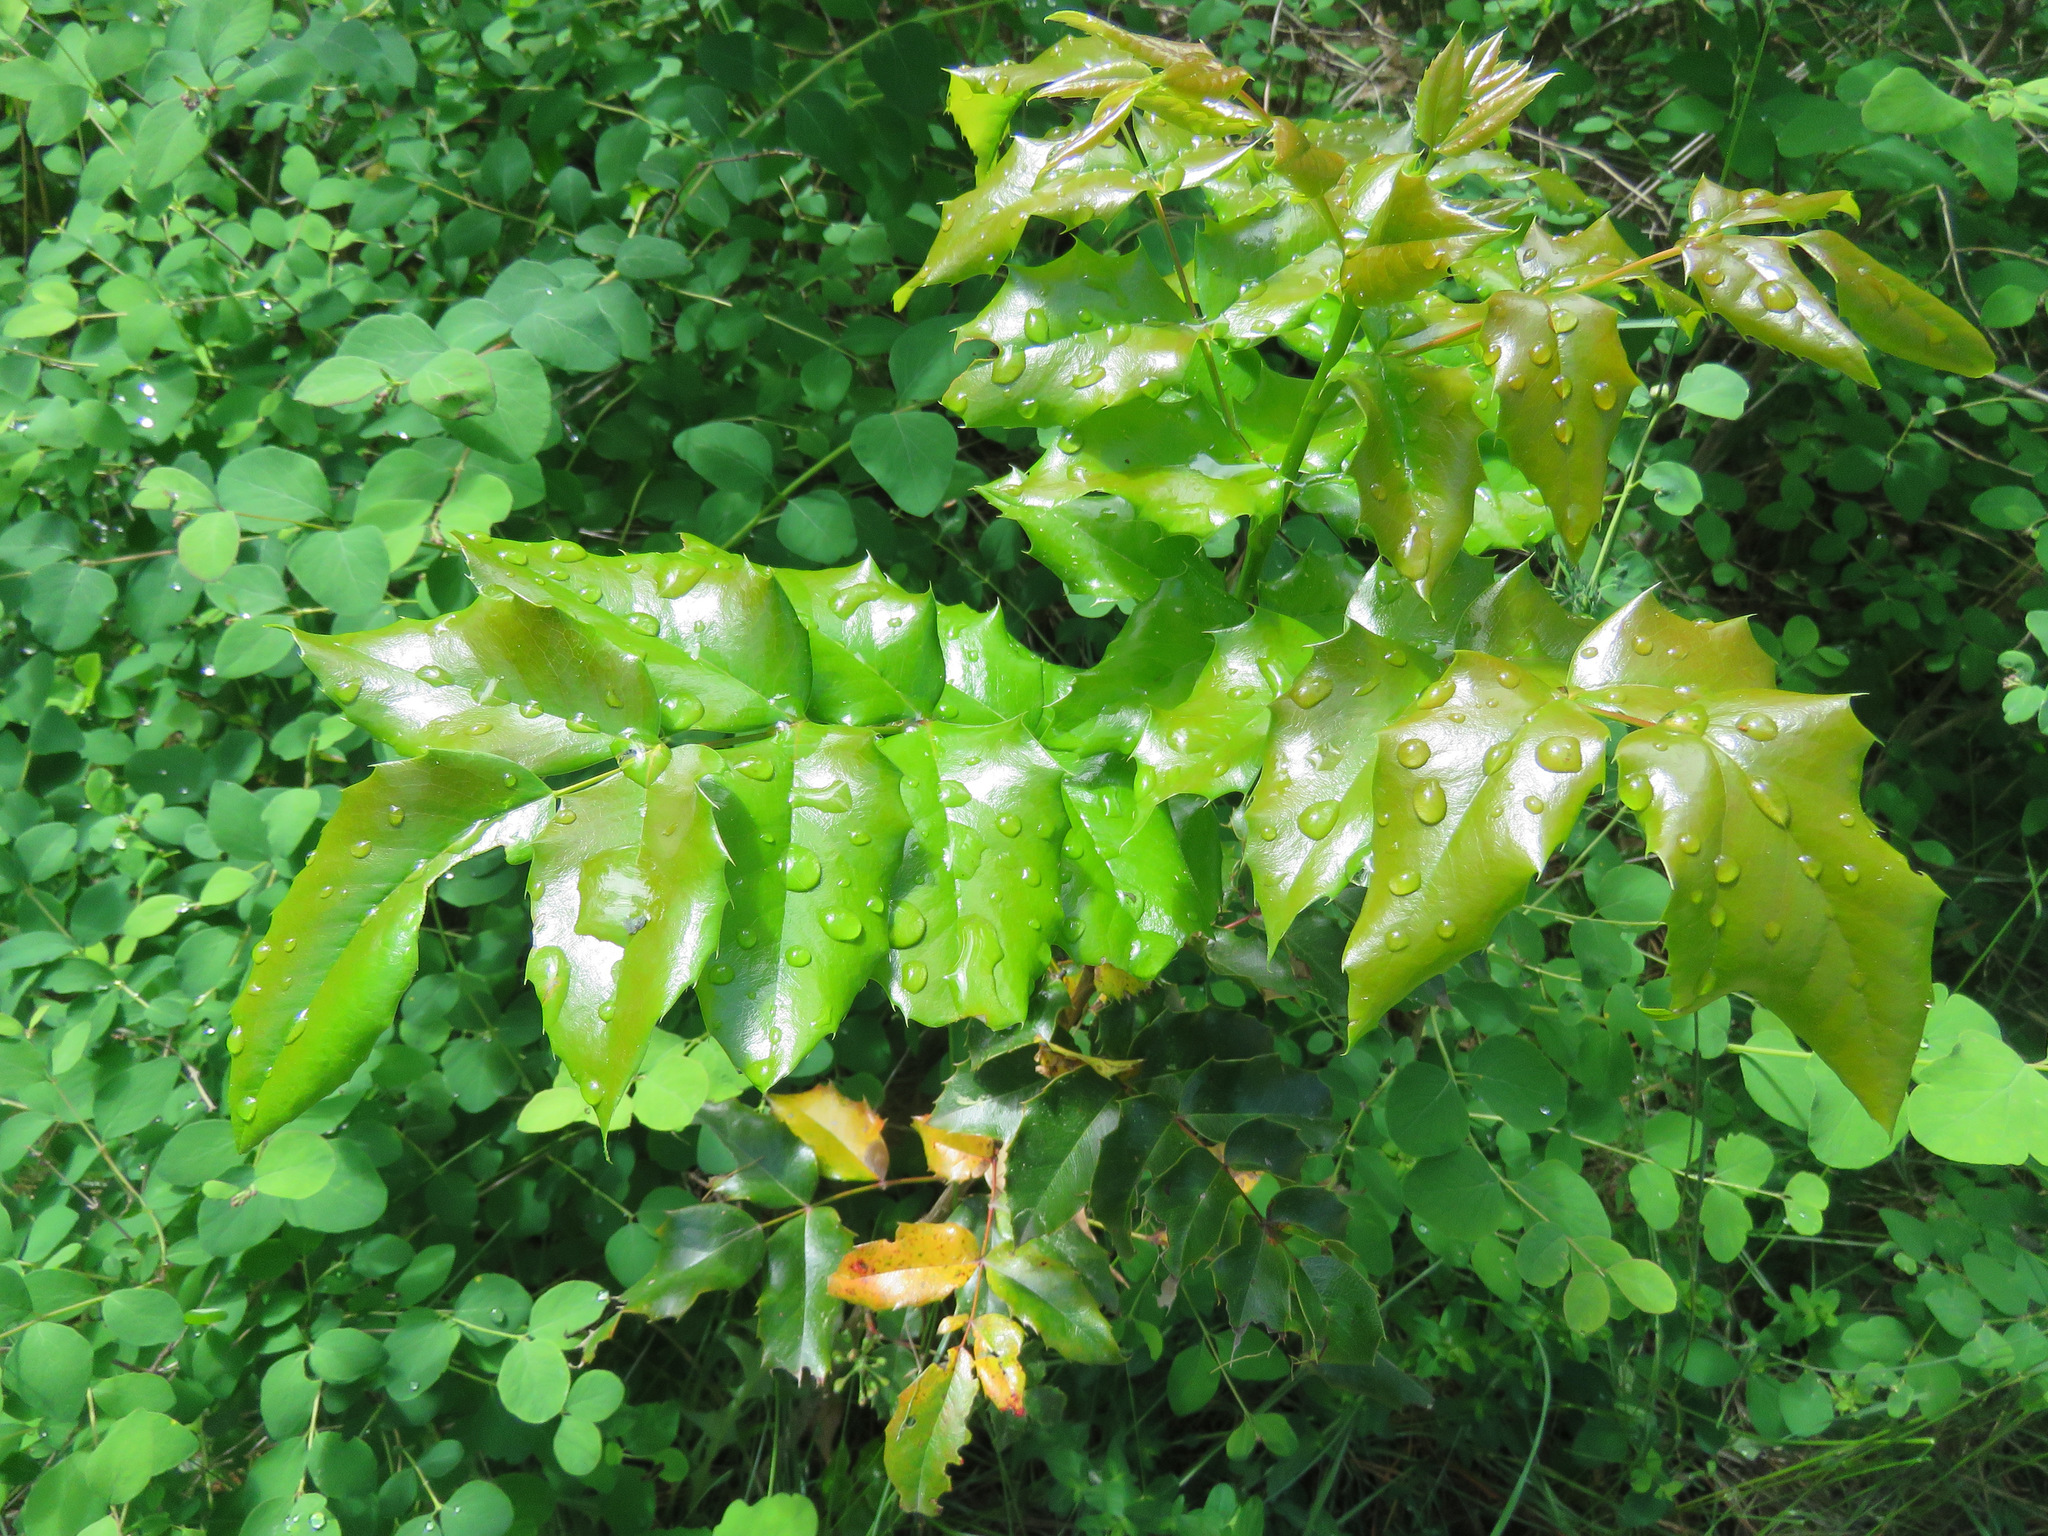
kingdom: Plantae
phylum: Tracheophyta
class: Magnoliopsida
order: Ranunculales
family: Berberidaceae
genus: Mahonia
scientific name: Mahonia aquifolium
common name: Oregon-grape
